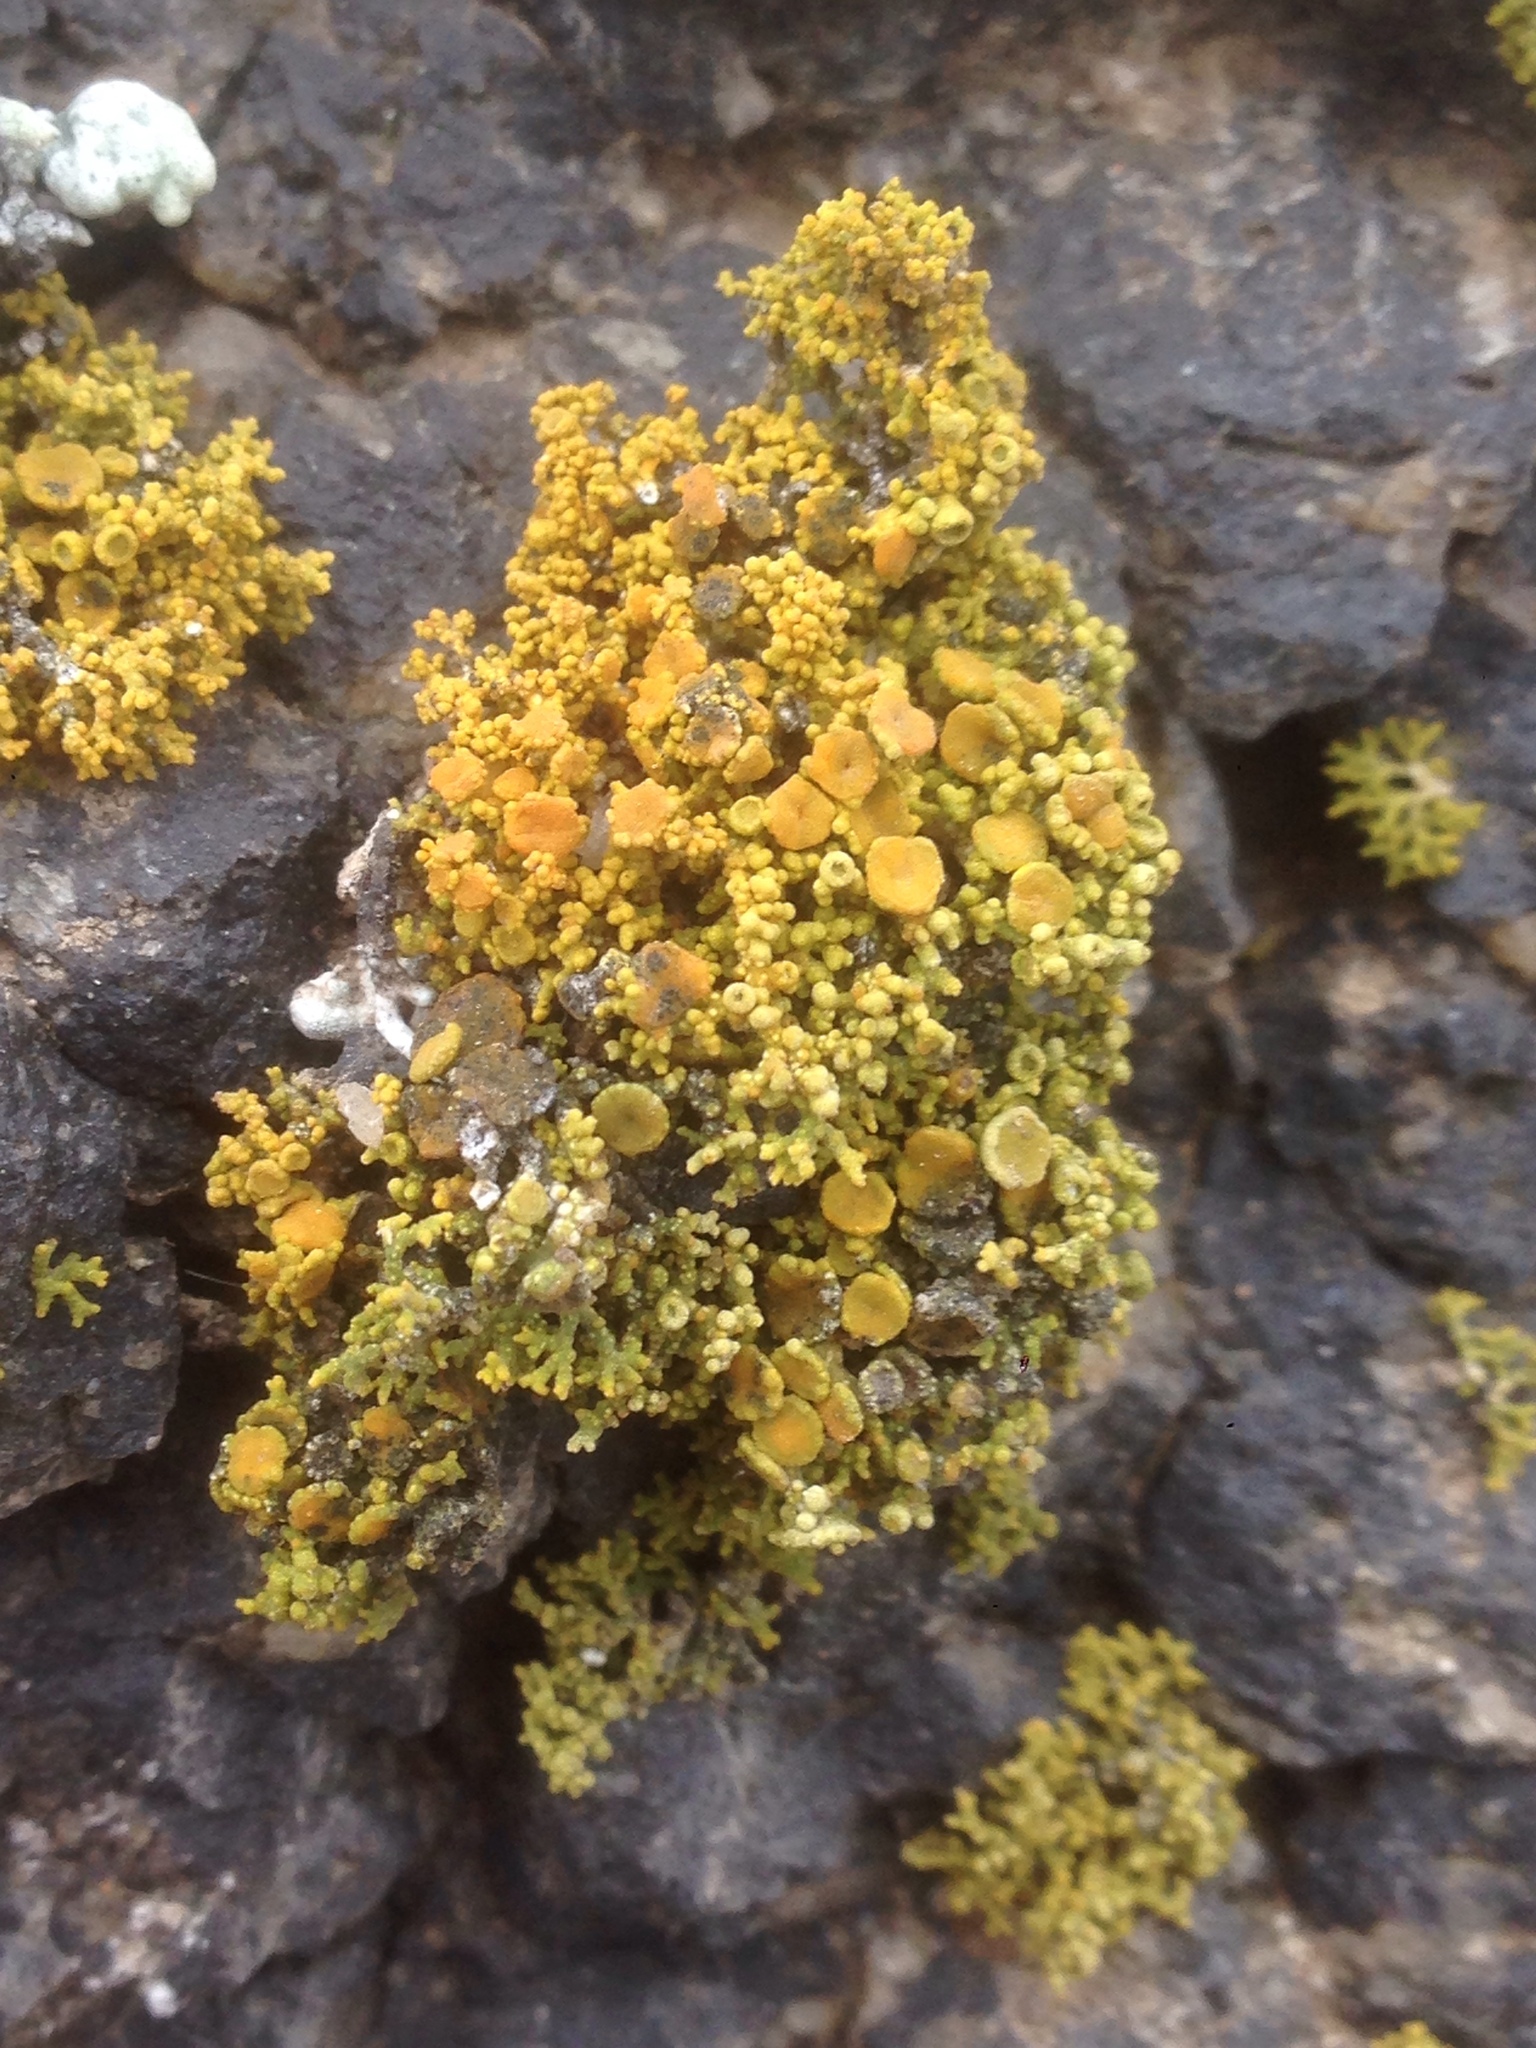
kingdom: Fungi
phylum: Ascomycota
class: Lecanoromycetes
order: Teloschistales
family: Teloschistaceae
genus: Polycauliona
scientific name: Polycauliona coralloides
